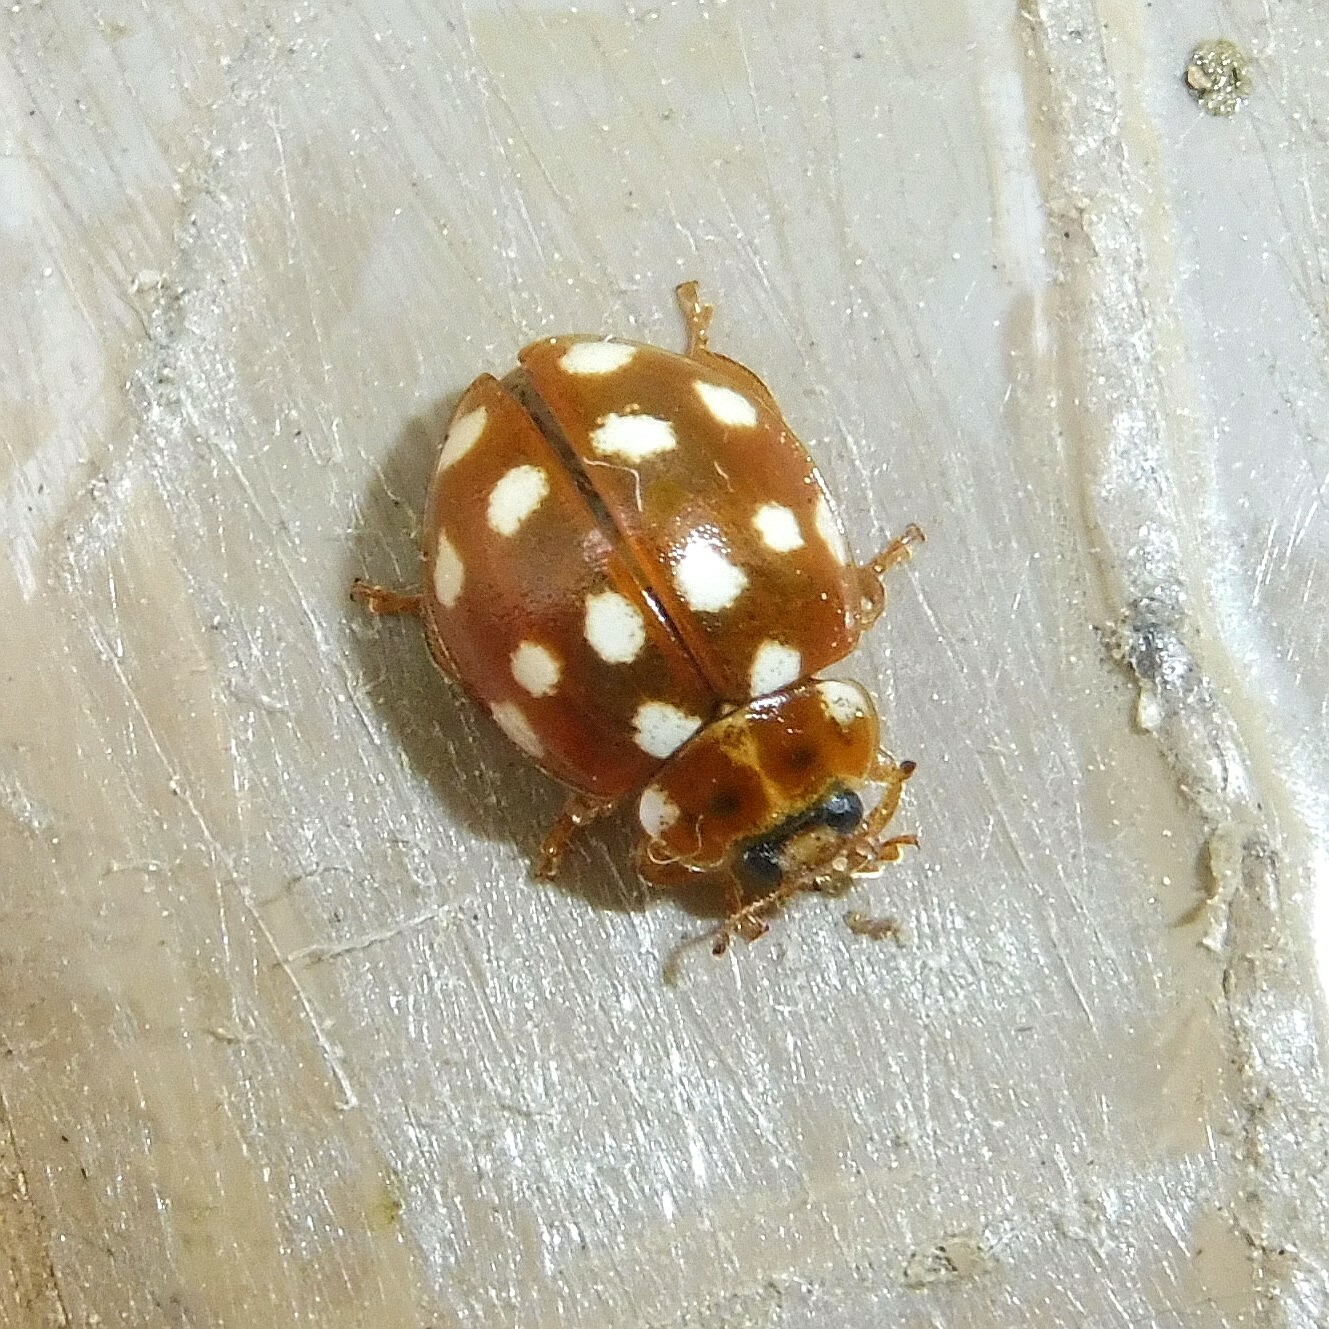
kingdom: Animalia
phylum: Arthropoda
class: Insecta
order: Coleoptera
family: Coccinellidae
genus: Calvia
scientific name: Calvia quatuordecimguttata
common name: Cream-spot ladybird
